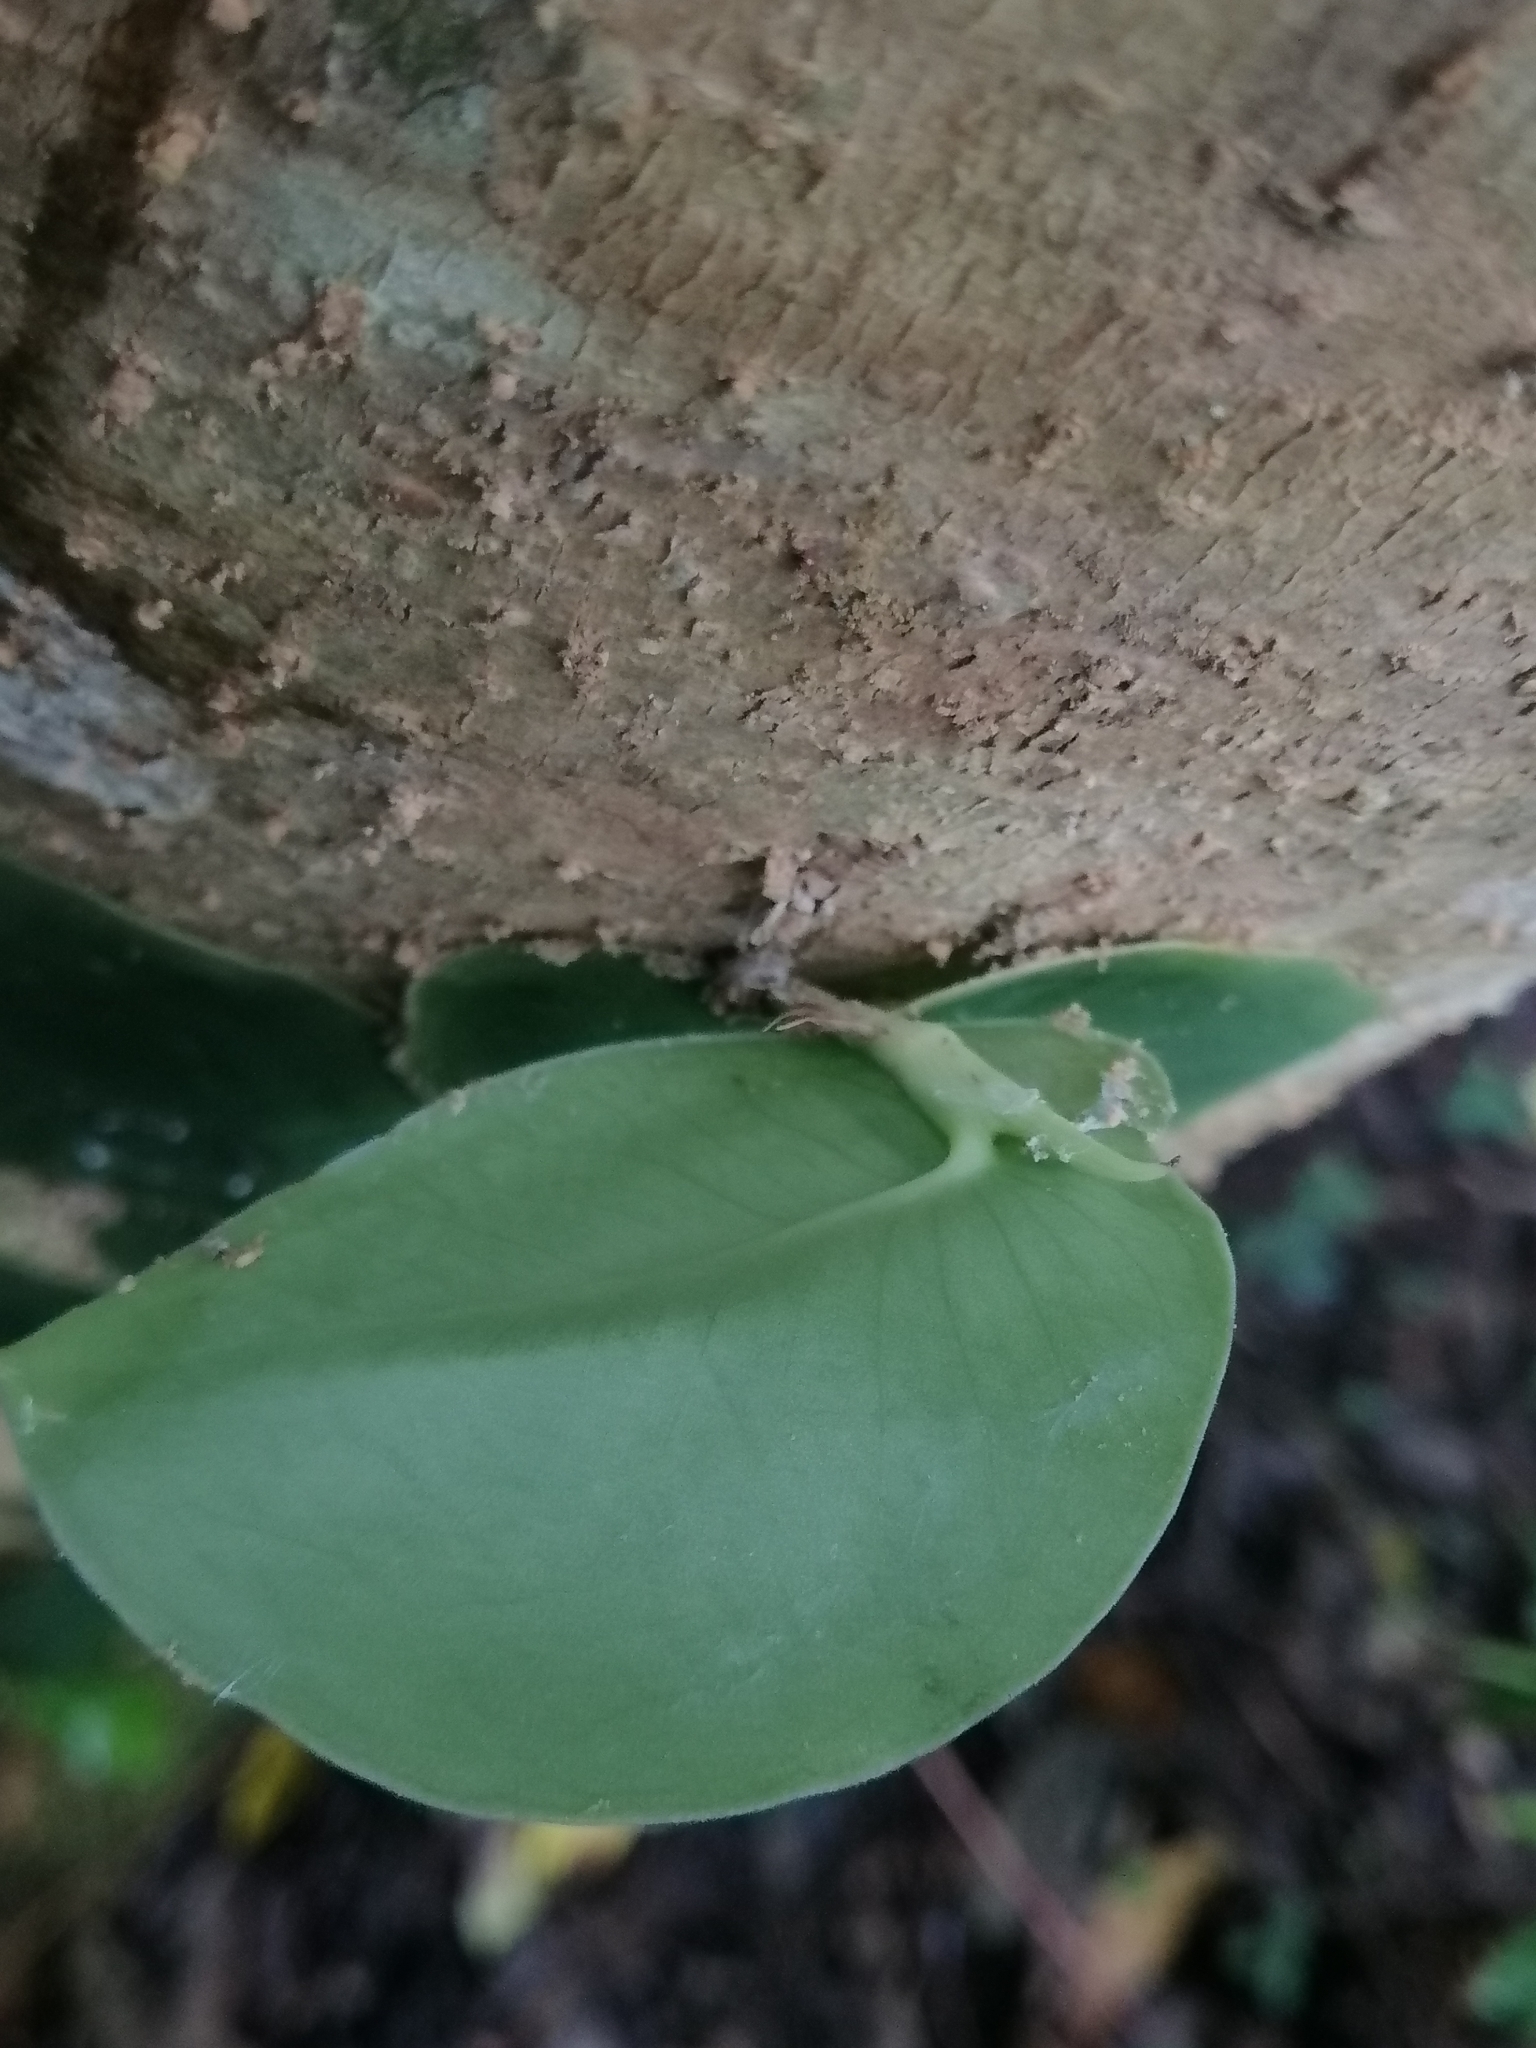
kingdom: Plantae
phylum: Tracheophyta
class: Liliopsida
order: Alismatales
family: Araceae
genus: Monstera
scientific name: Monstera tuberculata
